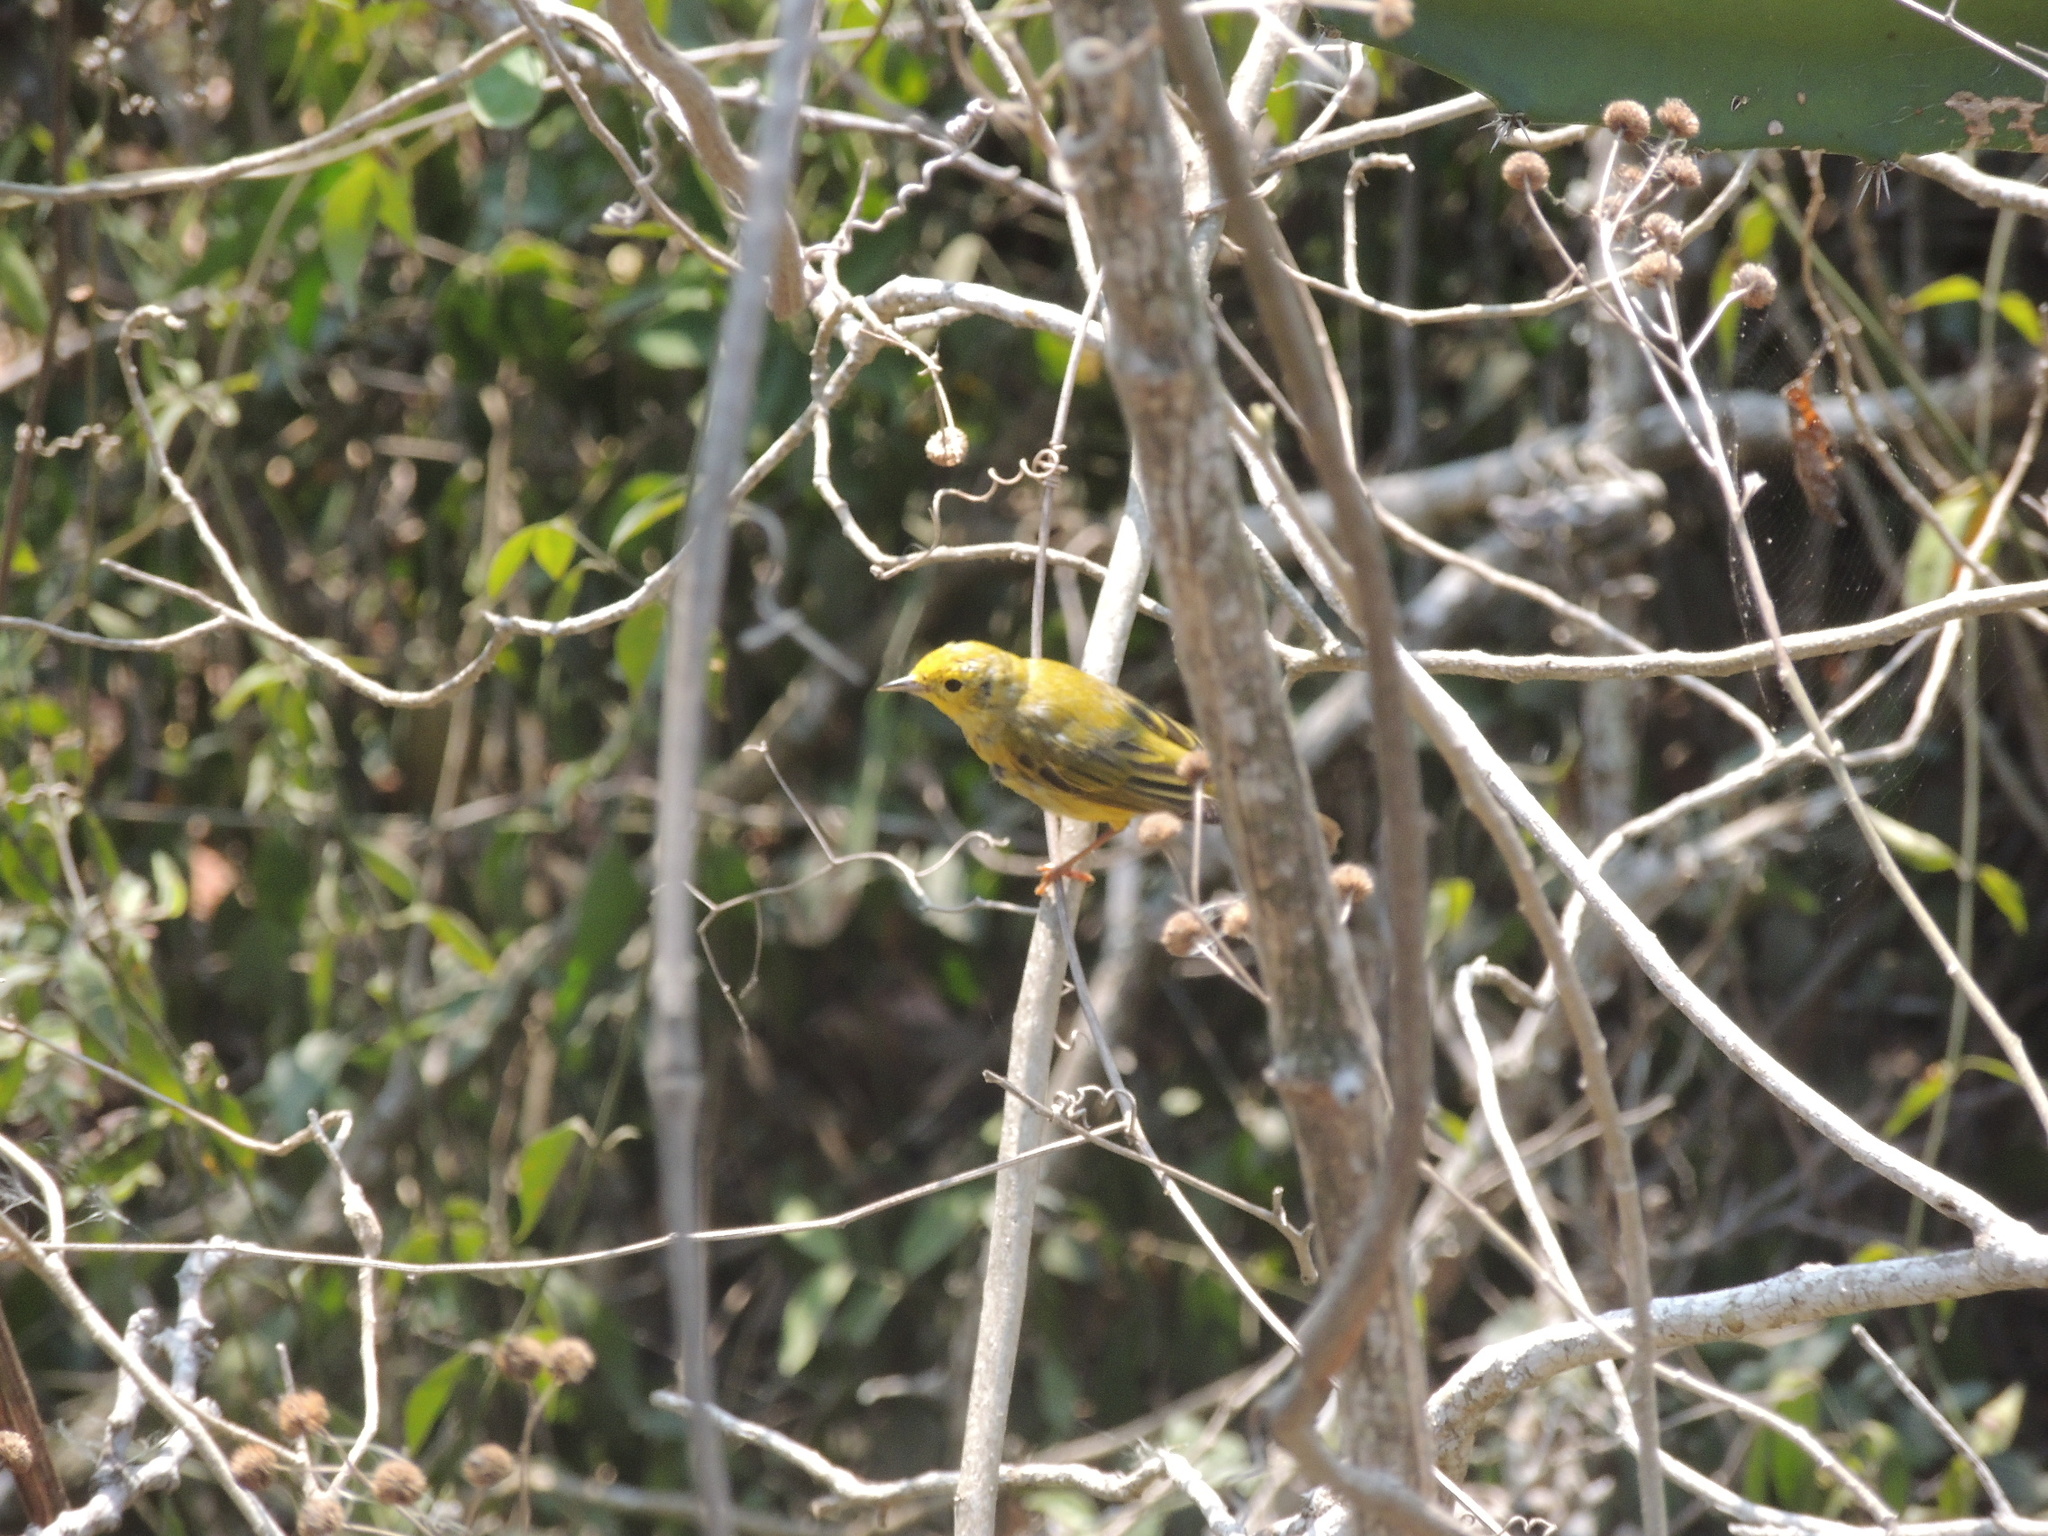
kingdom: Animalia
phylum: Chordata
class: Aves
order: Passeriformes
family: Parulidae
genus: Setophaga
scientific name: Setophaga petechia
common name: Yellow warbler
